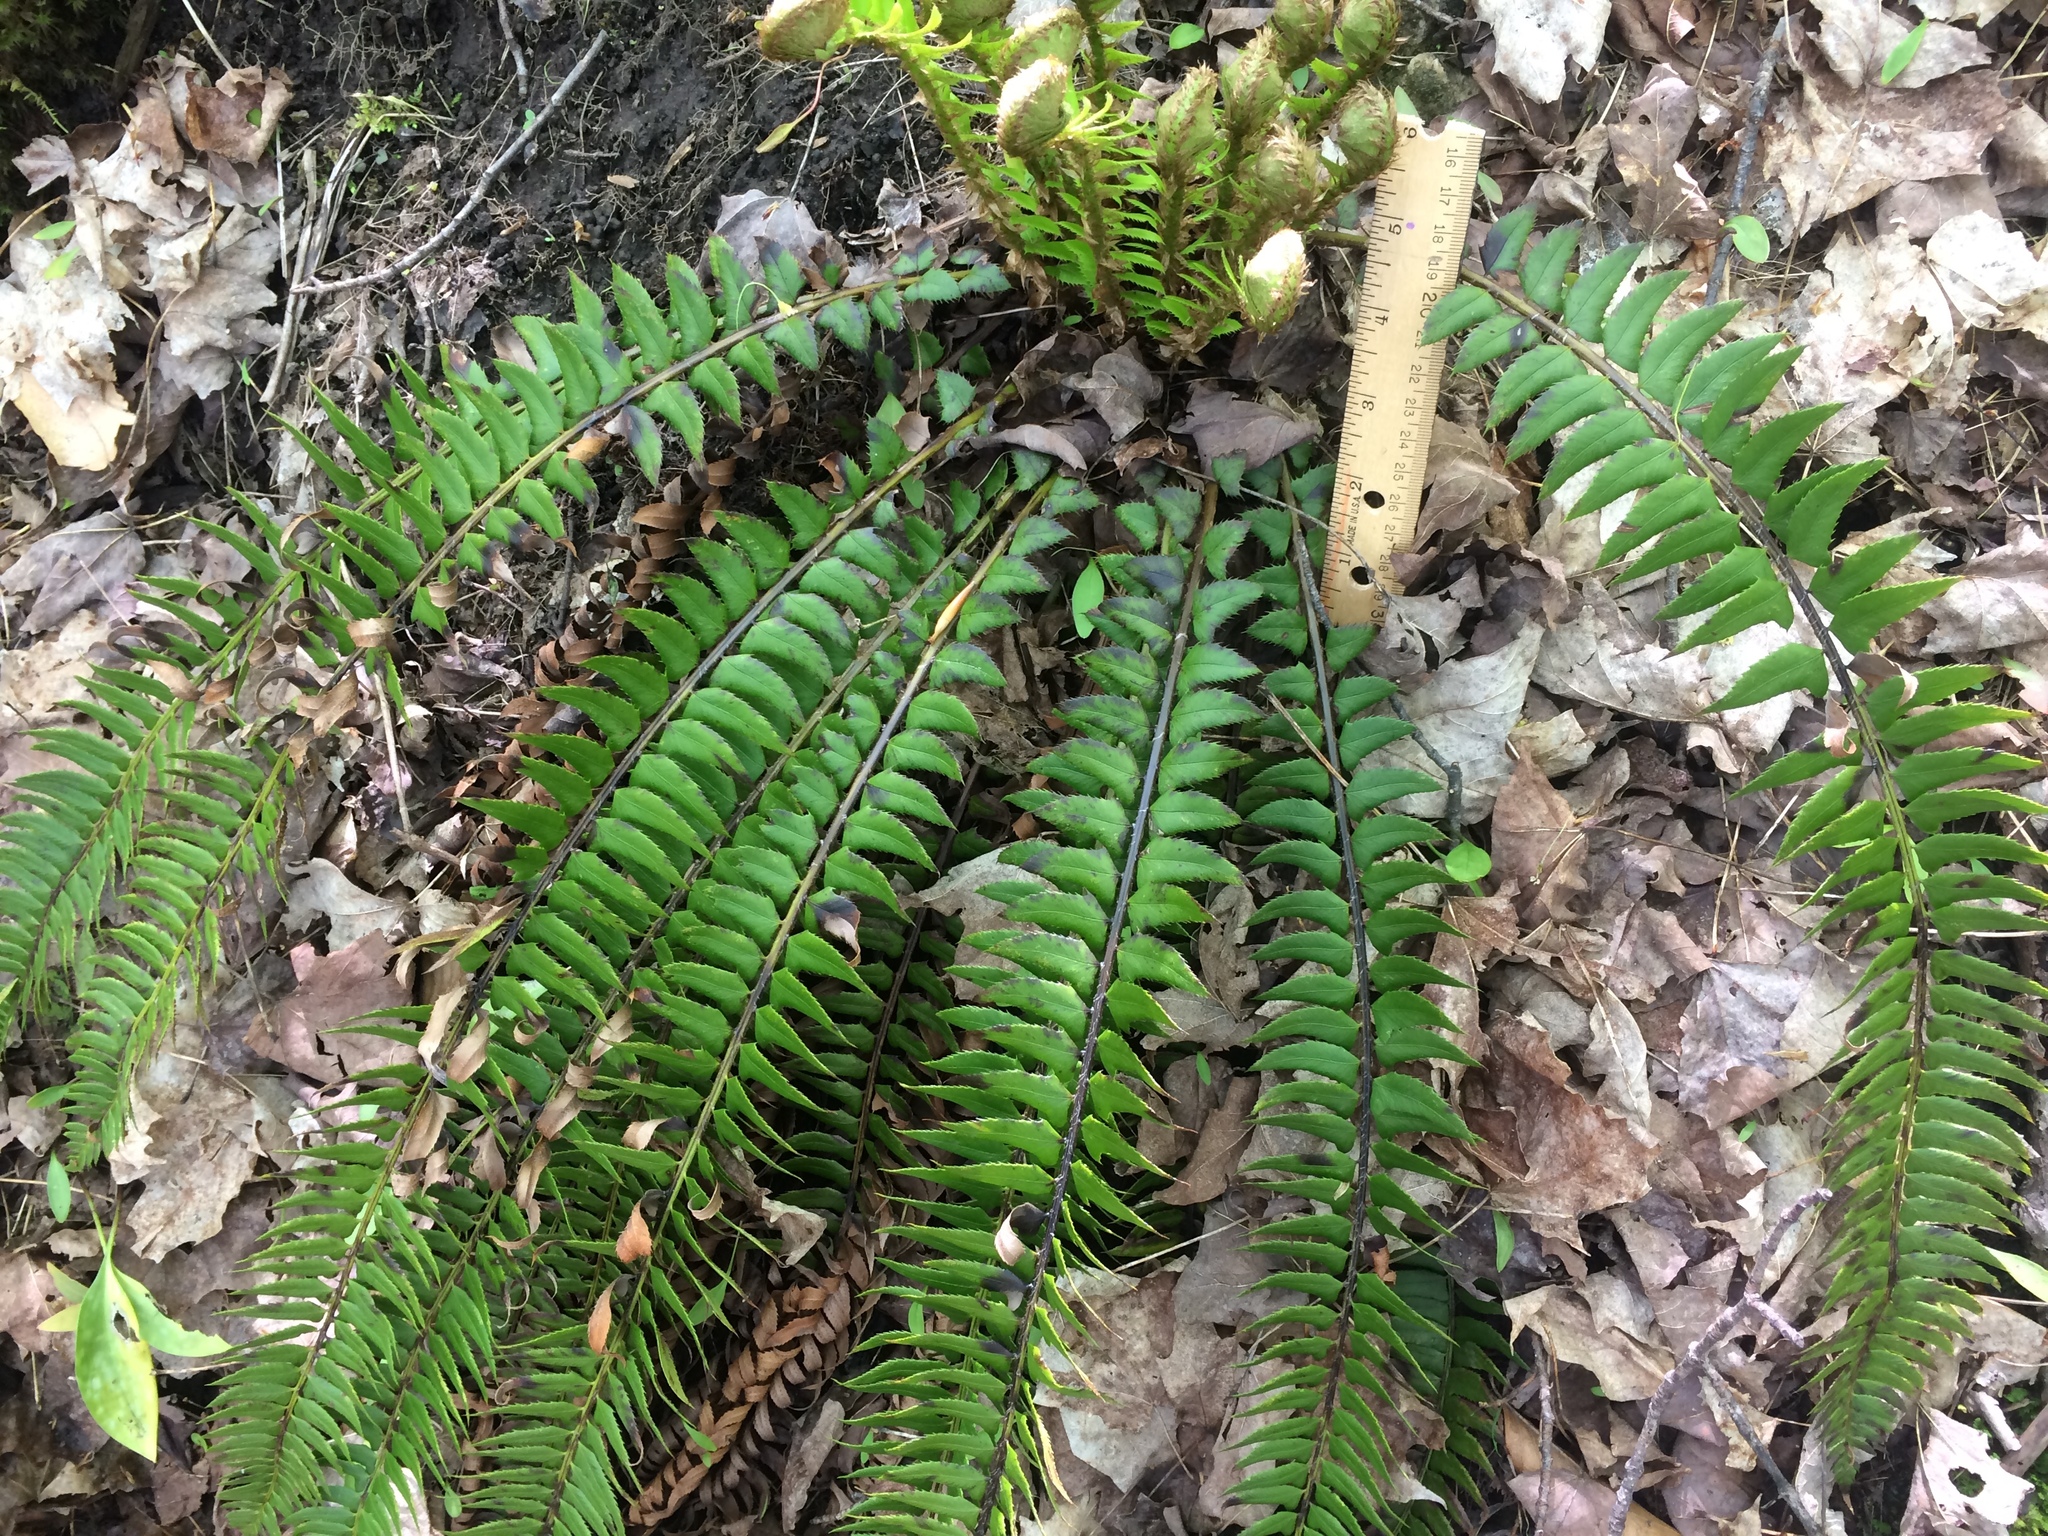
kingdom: Plantae
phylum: Tracheophyta
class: Polypodiopsida
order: Polypodiales
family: Dryopteridaceae
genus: Polystichum
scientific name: Polystichum lonchitis
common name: Holly fern
